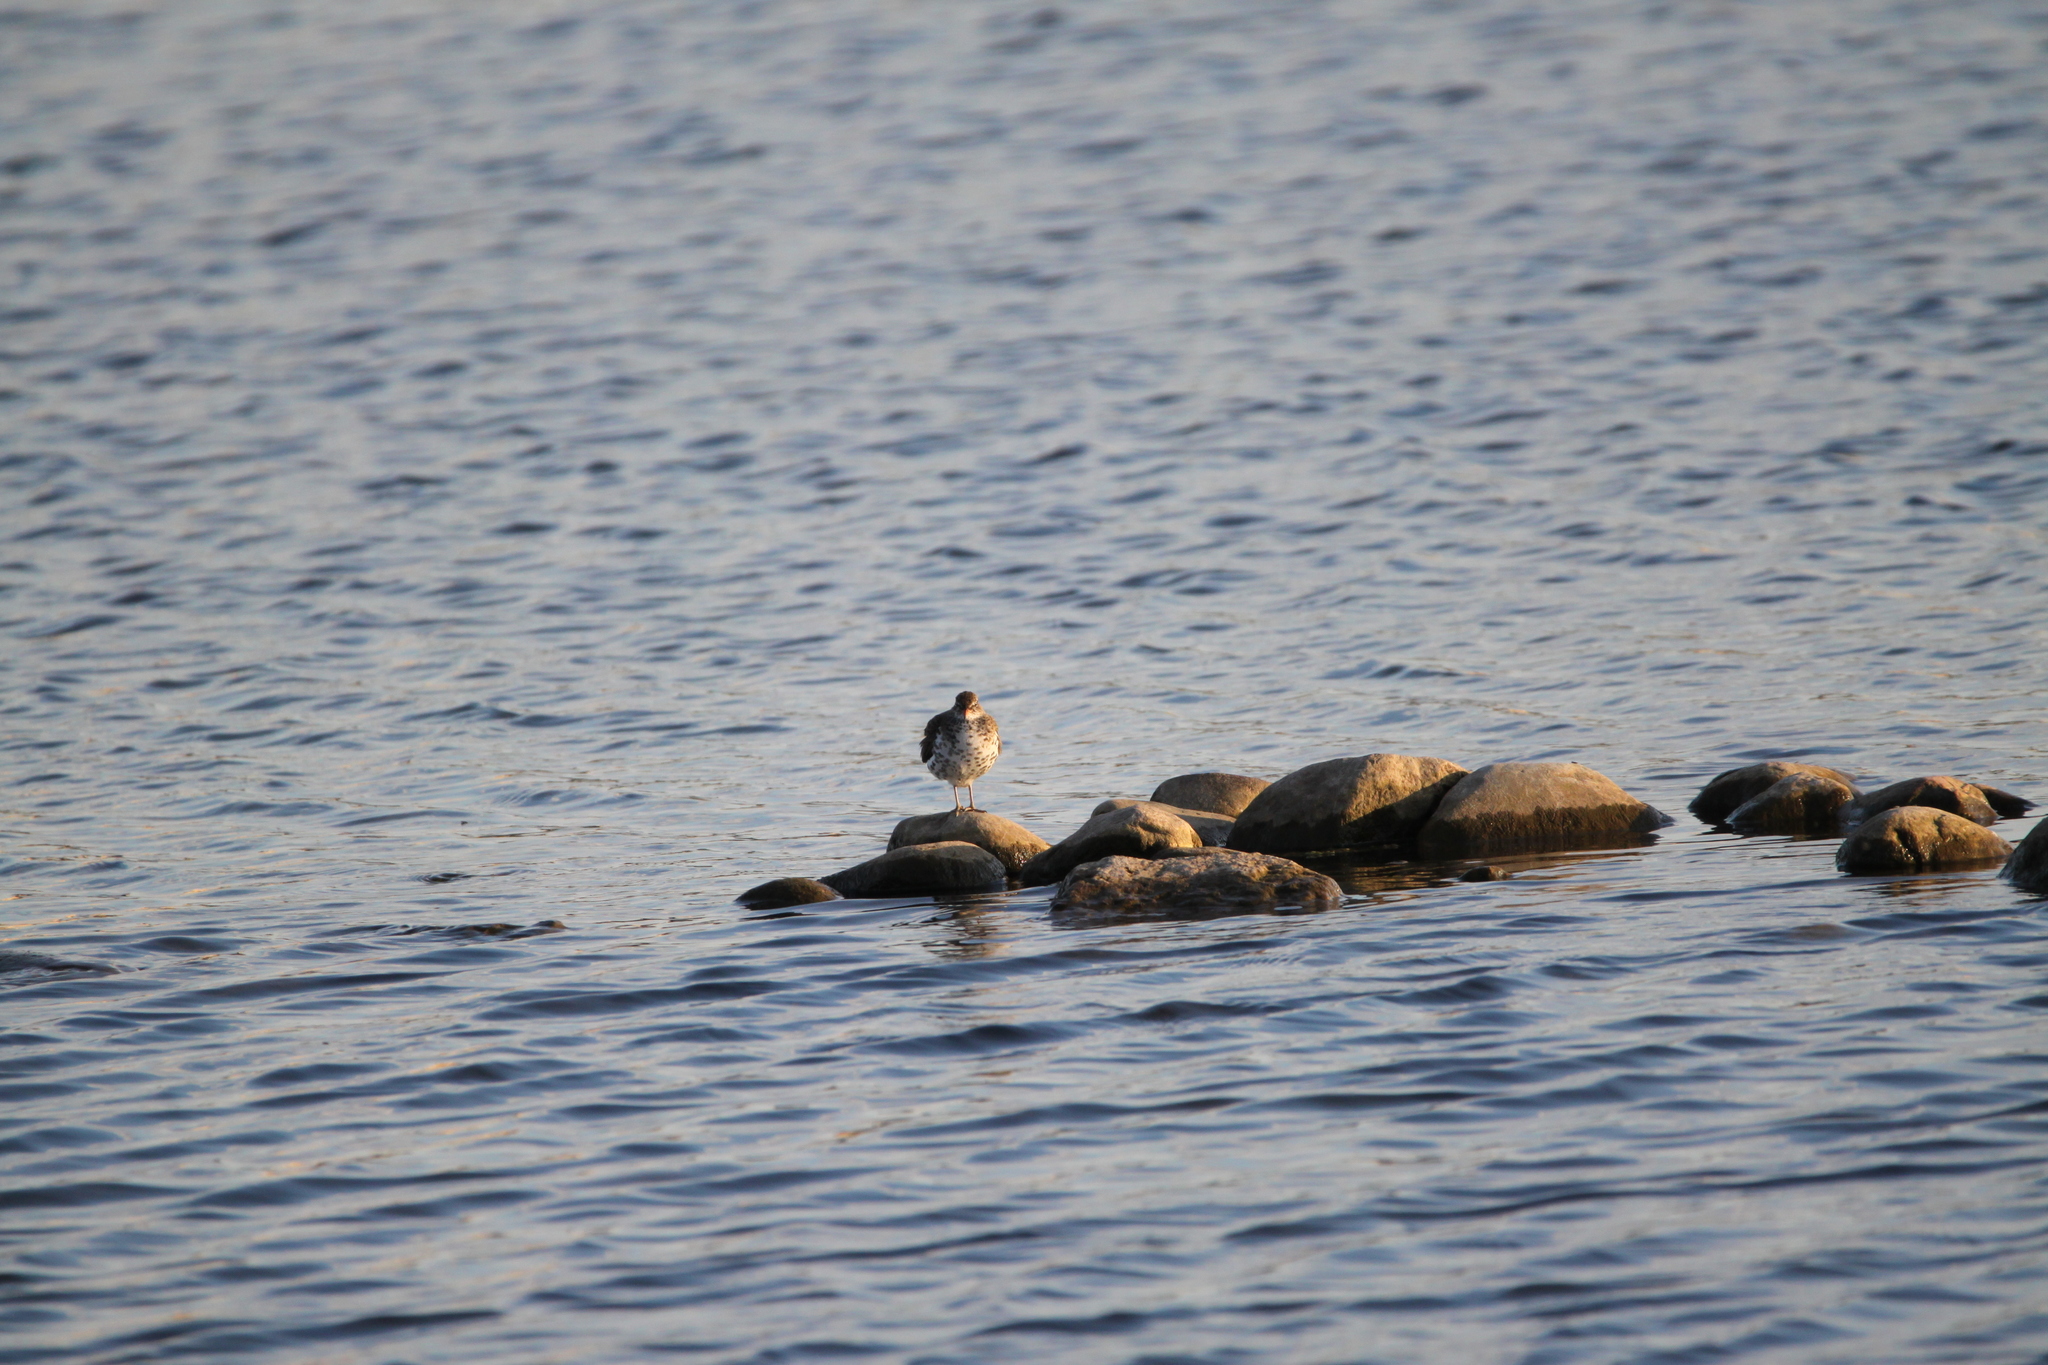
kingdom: Animalia
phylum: Chordata
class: Aves
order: Charadriiformes
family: Scolopacidae
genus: Actitis
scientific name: Actitis macularius
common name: Spotted sandpiper
